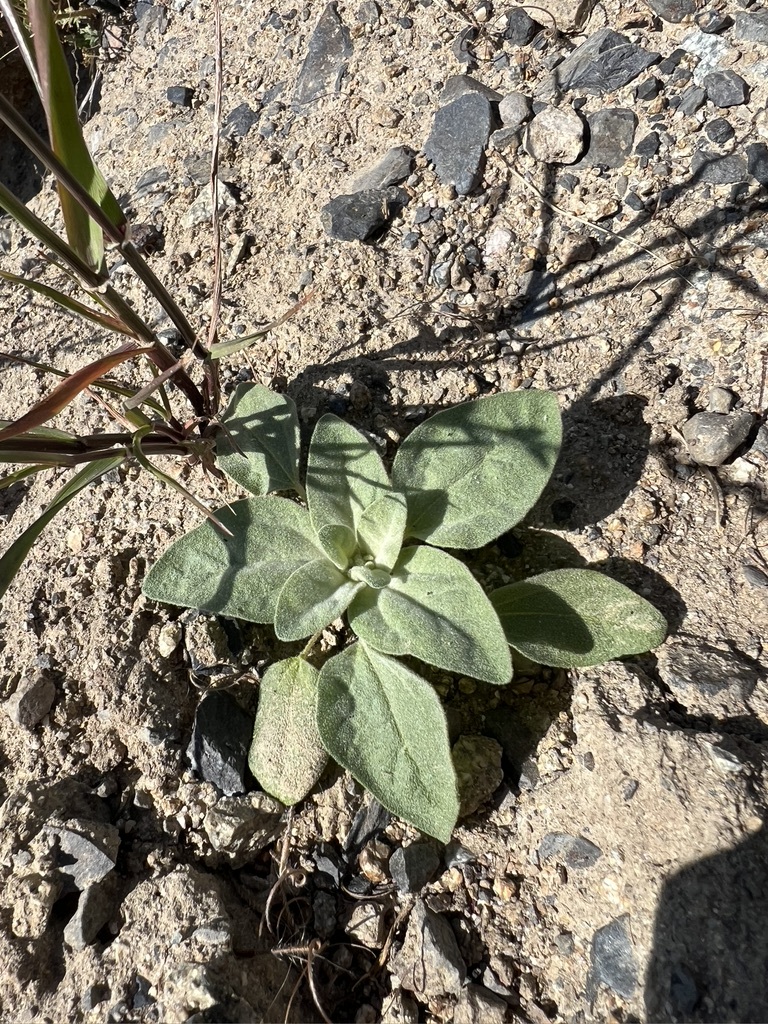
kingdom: Plantae
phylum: Tracheophyta
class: Magnoliopsida
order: Malpighiales
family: Euphorbiaceae
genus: Croton
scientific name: Croton setiger
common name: Dove weed
